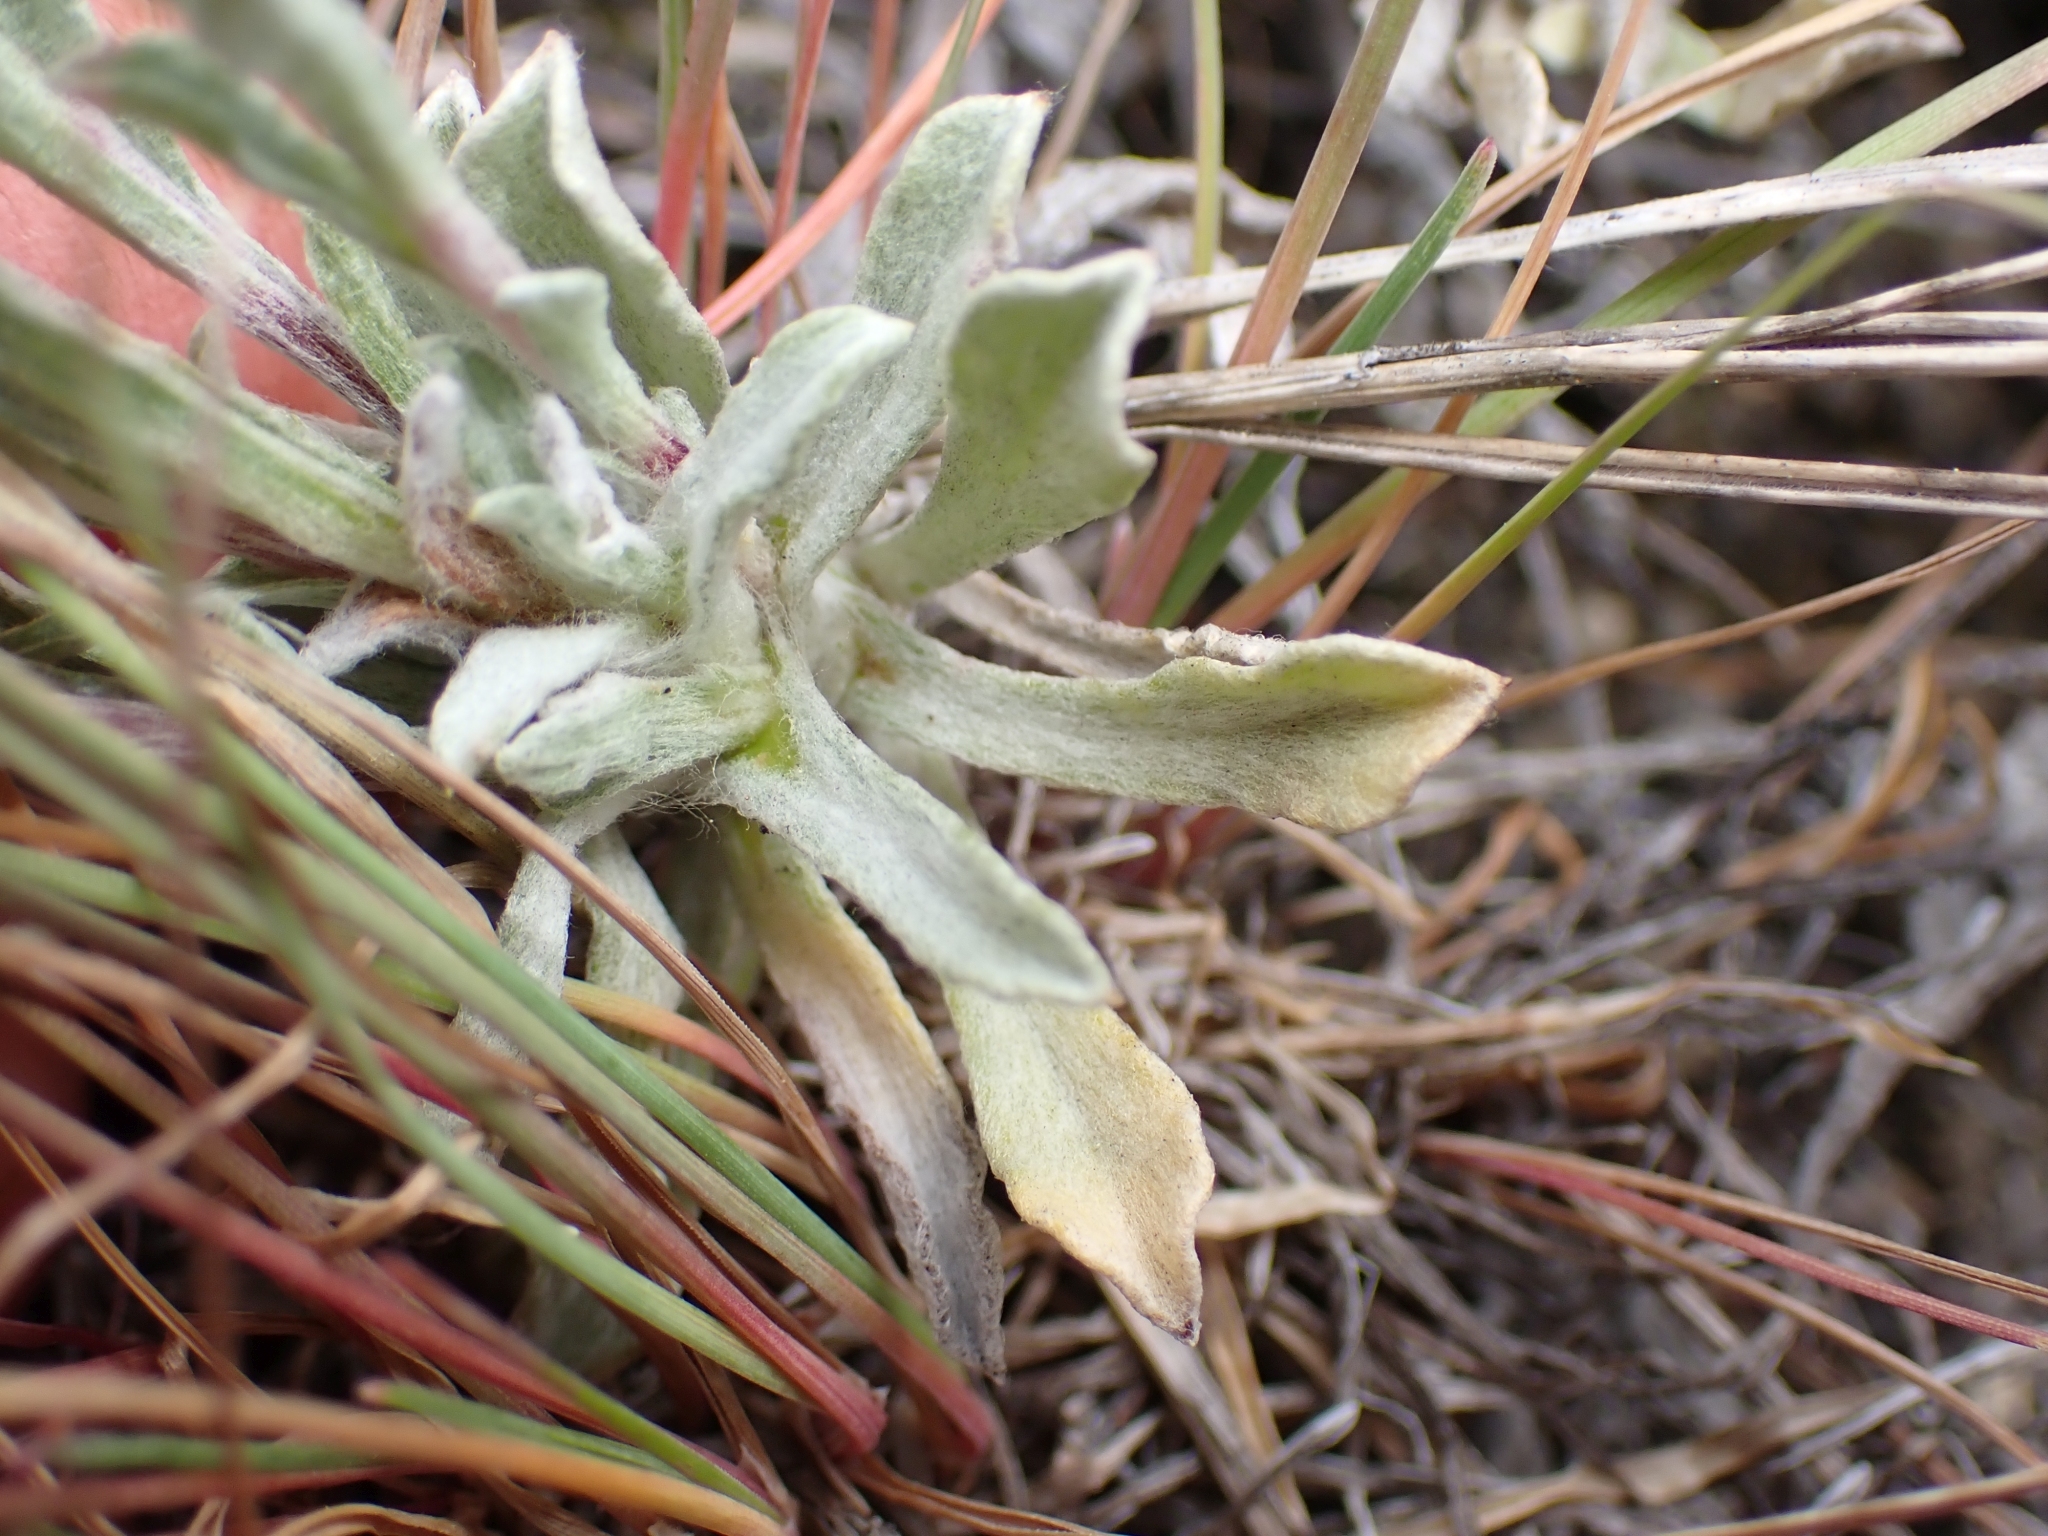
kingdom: Plantae
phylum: Tracheophyta
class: Magnoliopsida
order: Asterales
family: Asteraceae
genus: Antennaria
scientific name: Antennaria umbrinella
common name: Brown pussytoes
